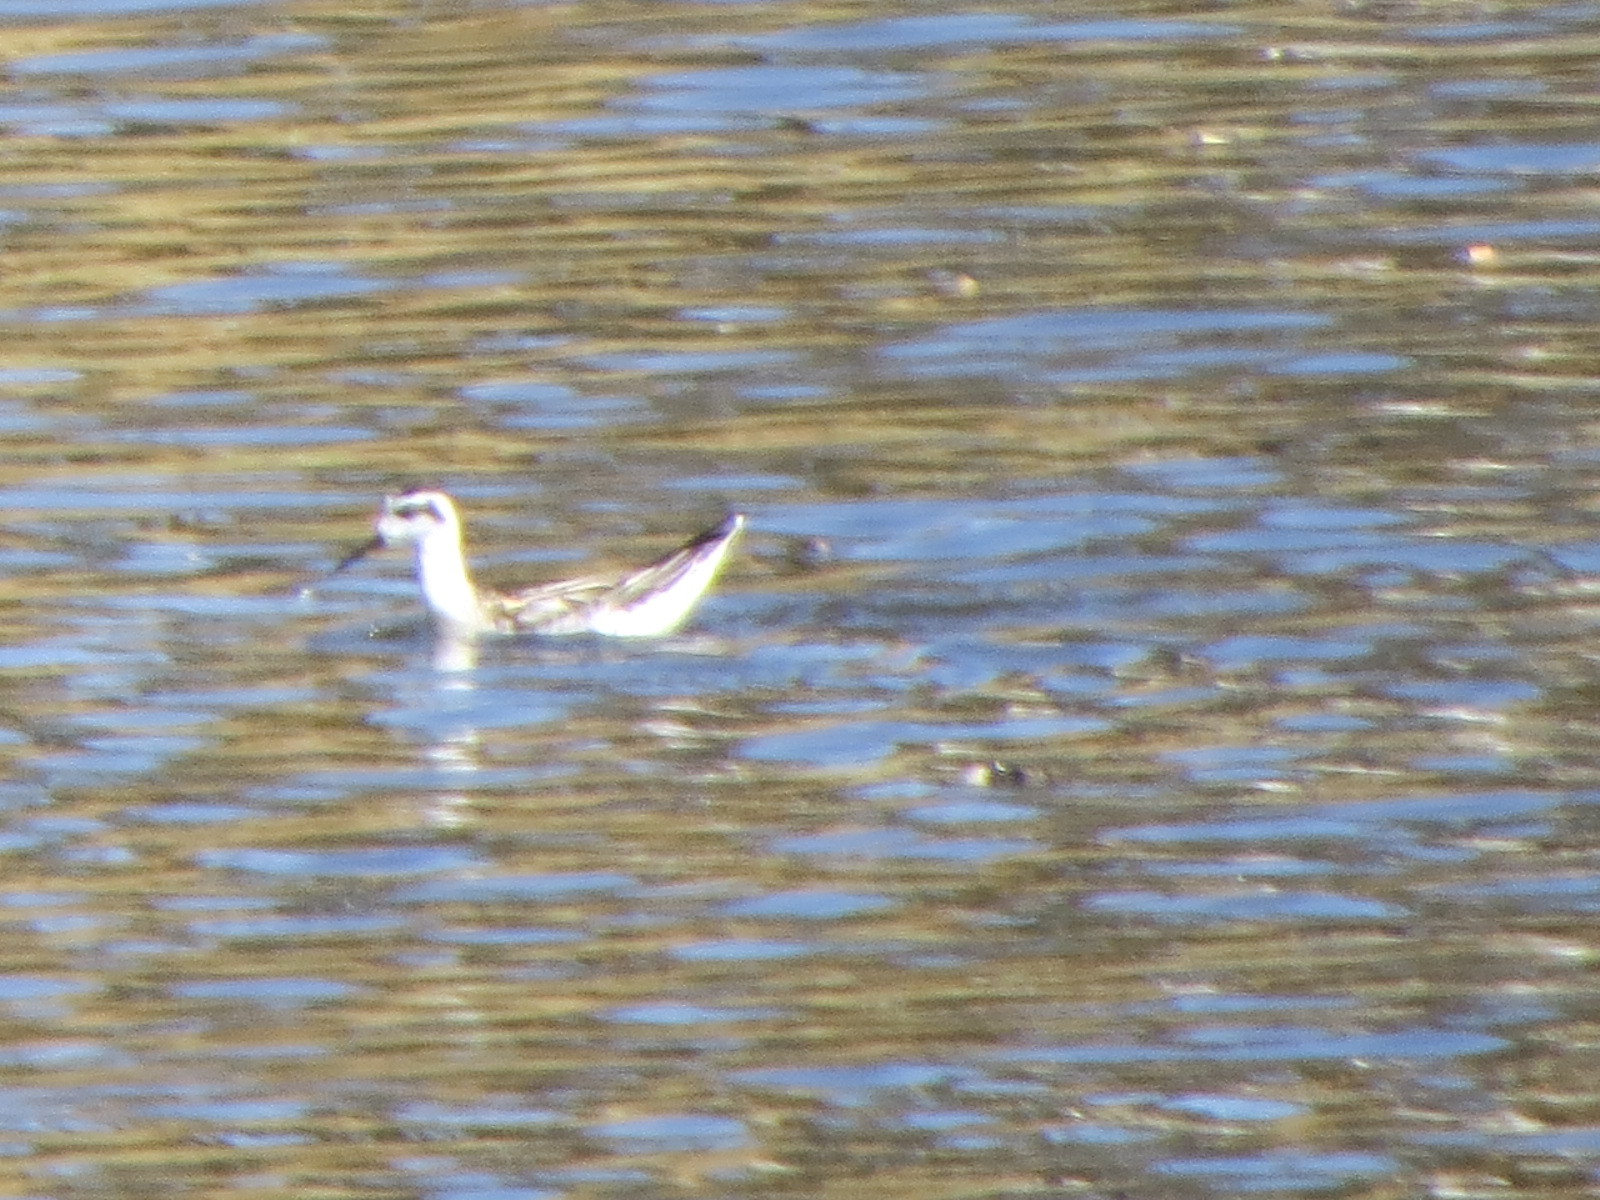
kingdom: Animalia
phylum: Chordata
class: Aves
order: Charadriiformes
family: Scolopacidae
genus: Phalaropus
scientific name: Phalaropus lobatus
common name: Red-necked phalarope
